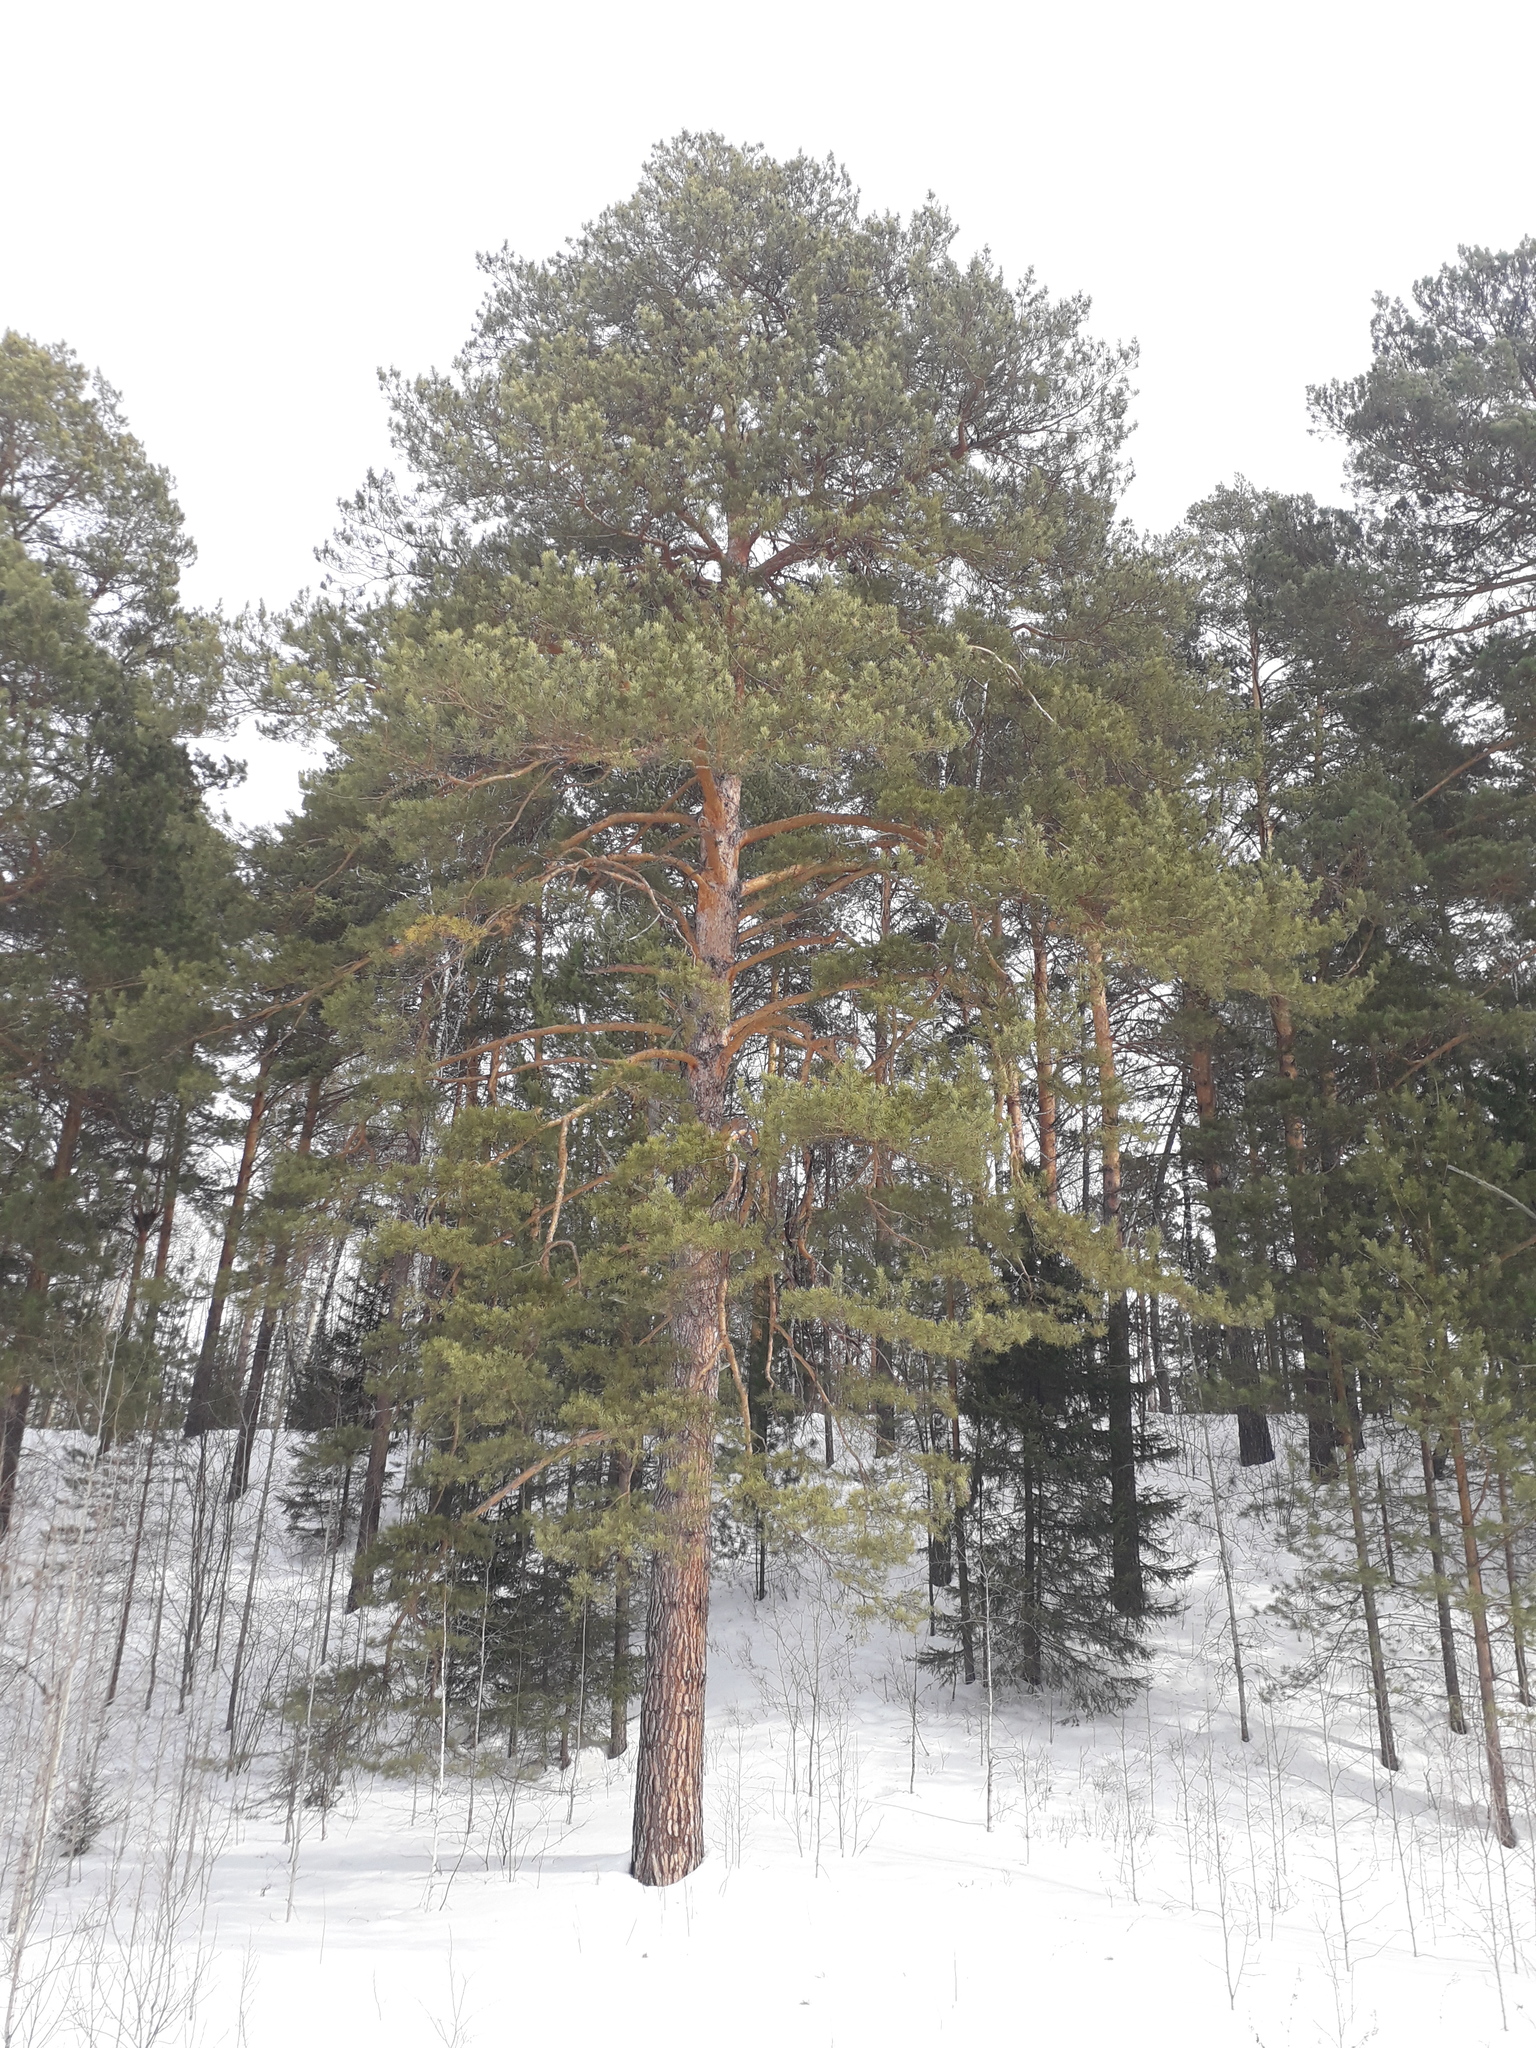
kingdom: Plantae
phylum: Tracheophyta
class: Pinopsida
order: Pinales
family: Pinaceae
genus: Pinus
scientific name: Pinus sylvestris
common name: Scots pine
